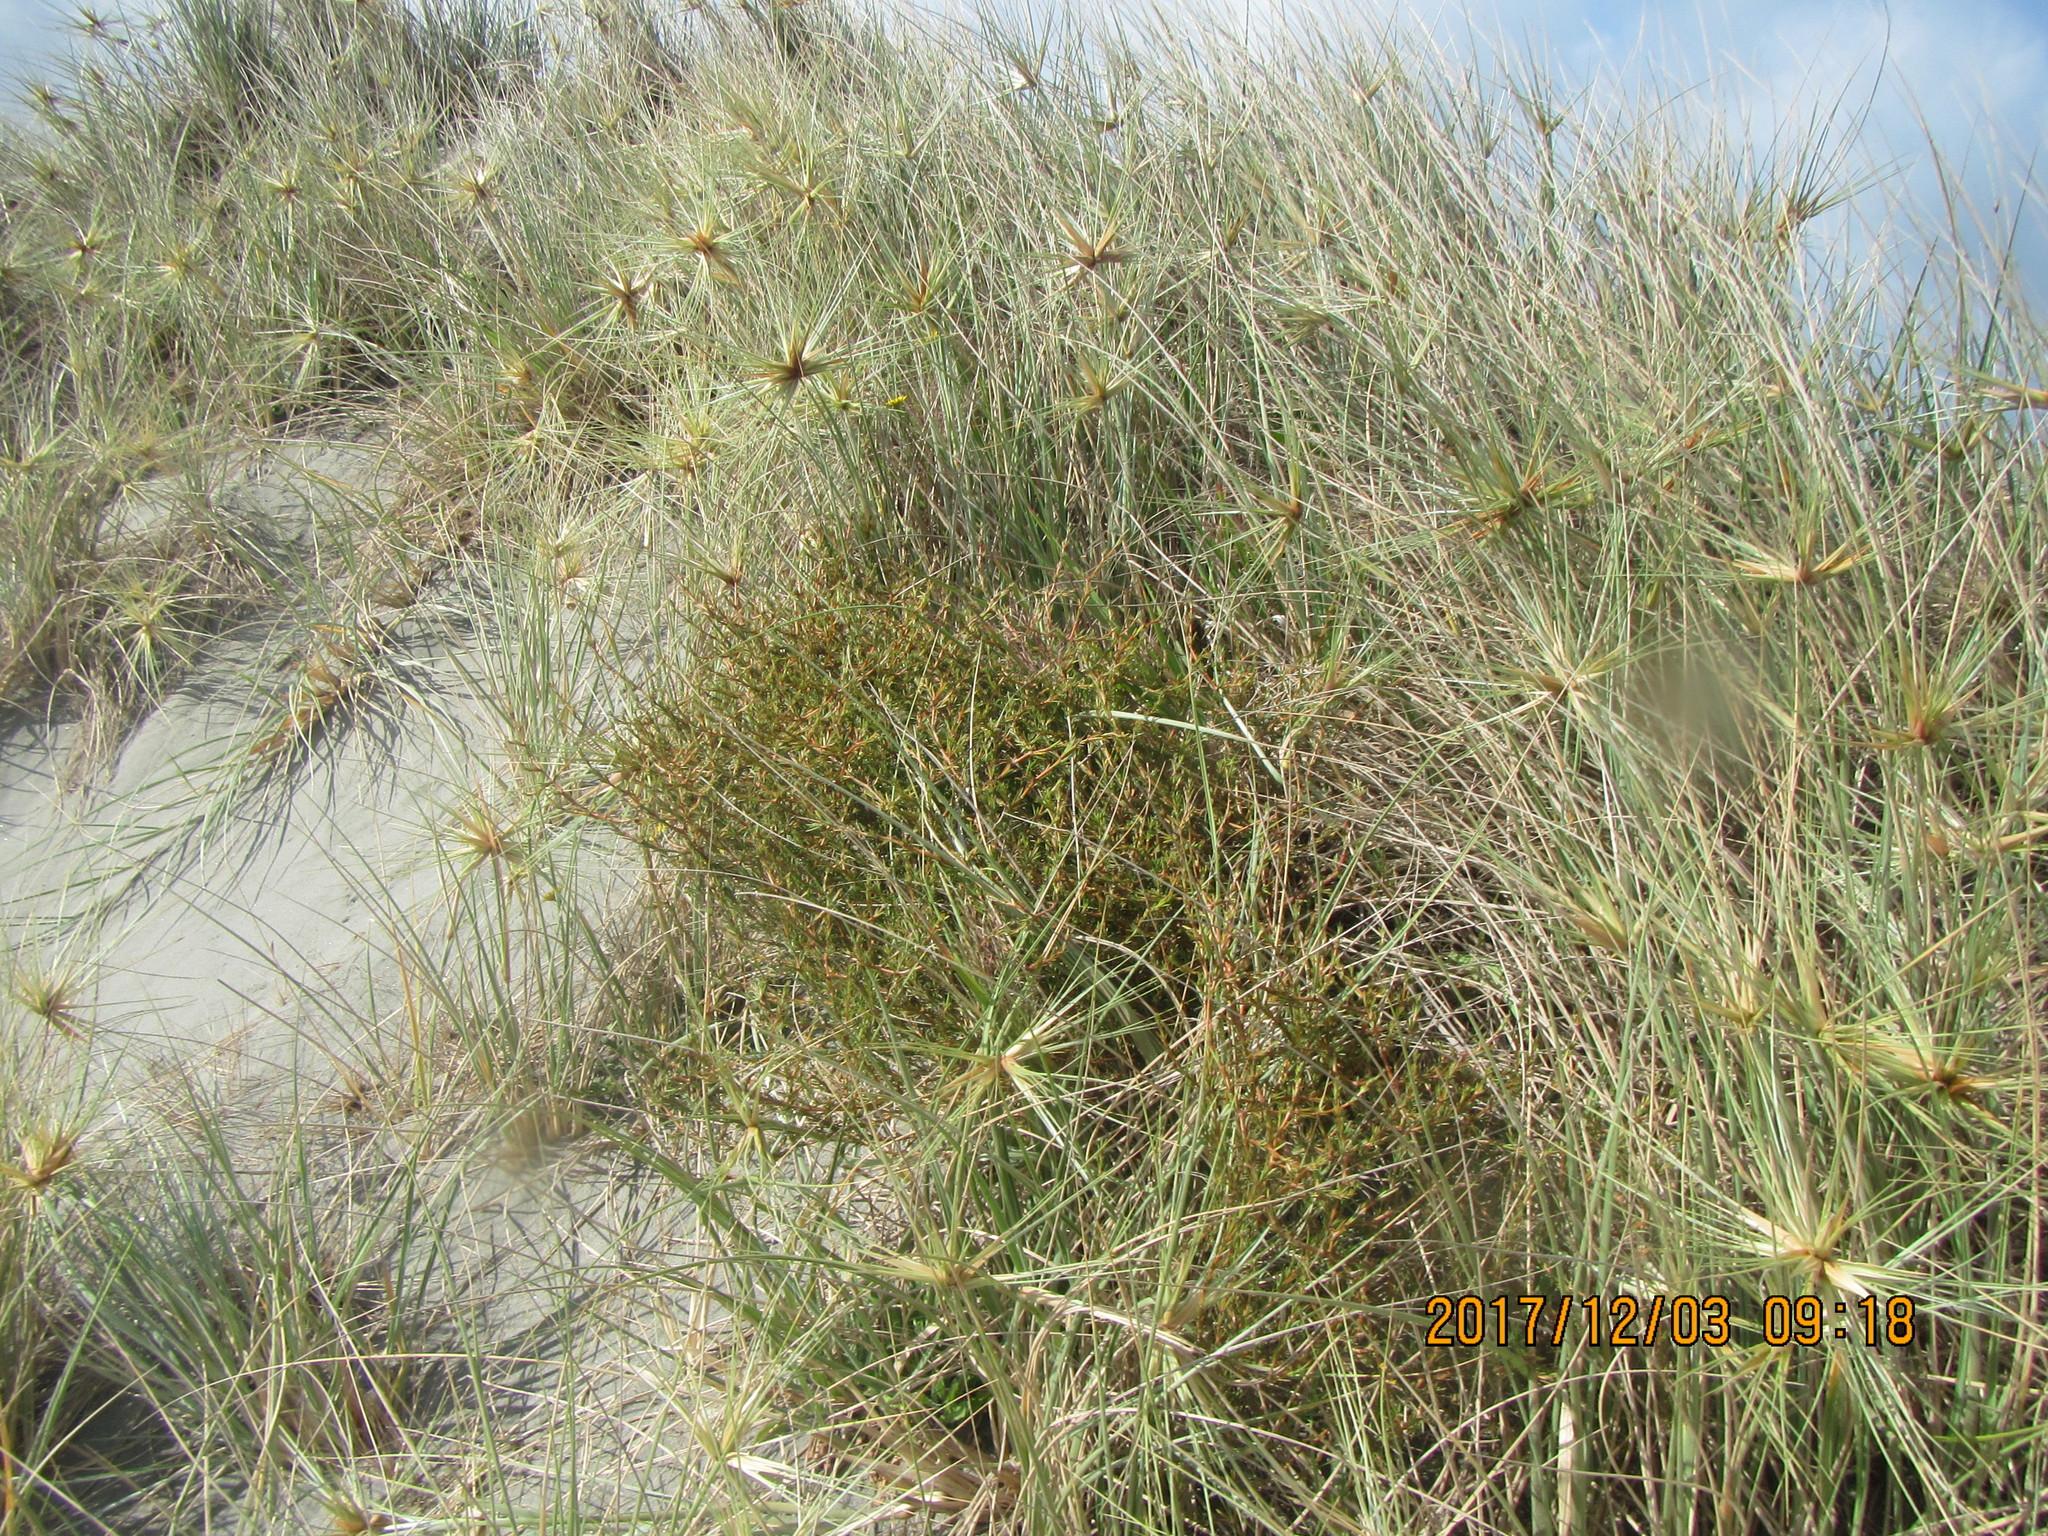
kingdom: Plantae
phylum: Tracheophyta
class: Magnoliopsida
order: Gentianales
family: Rubiaceae
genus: Coprosma
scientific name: Coprosma acerosa
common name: Sand coprosma
